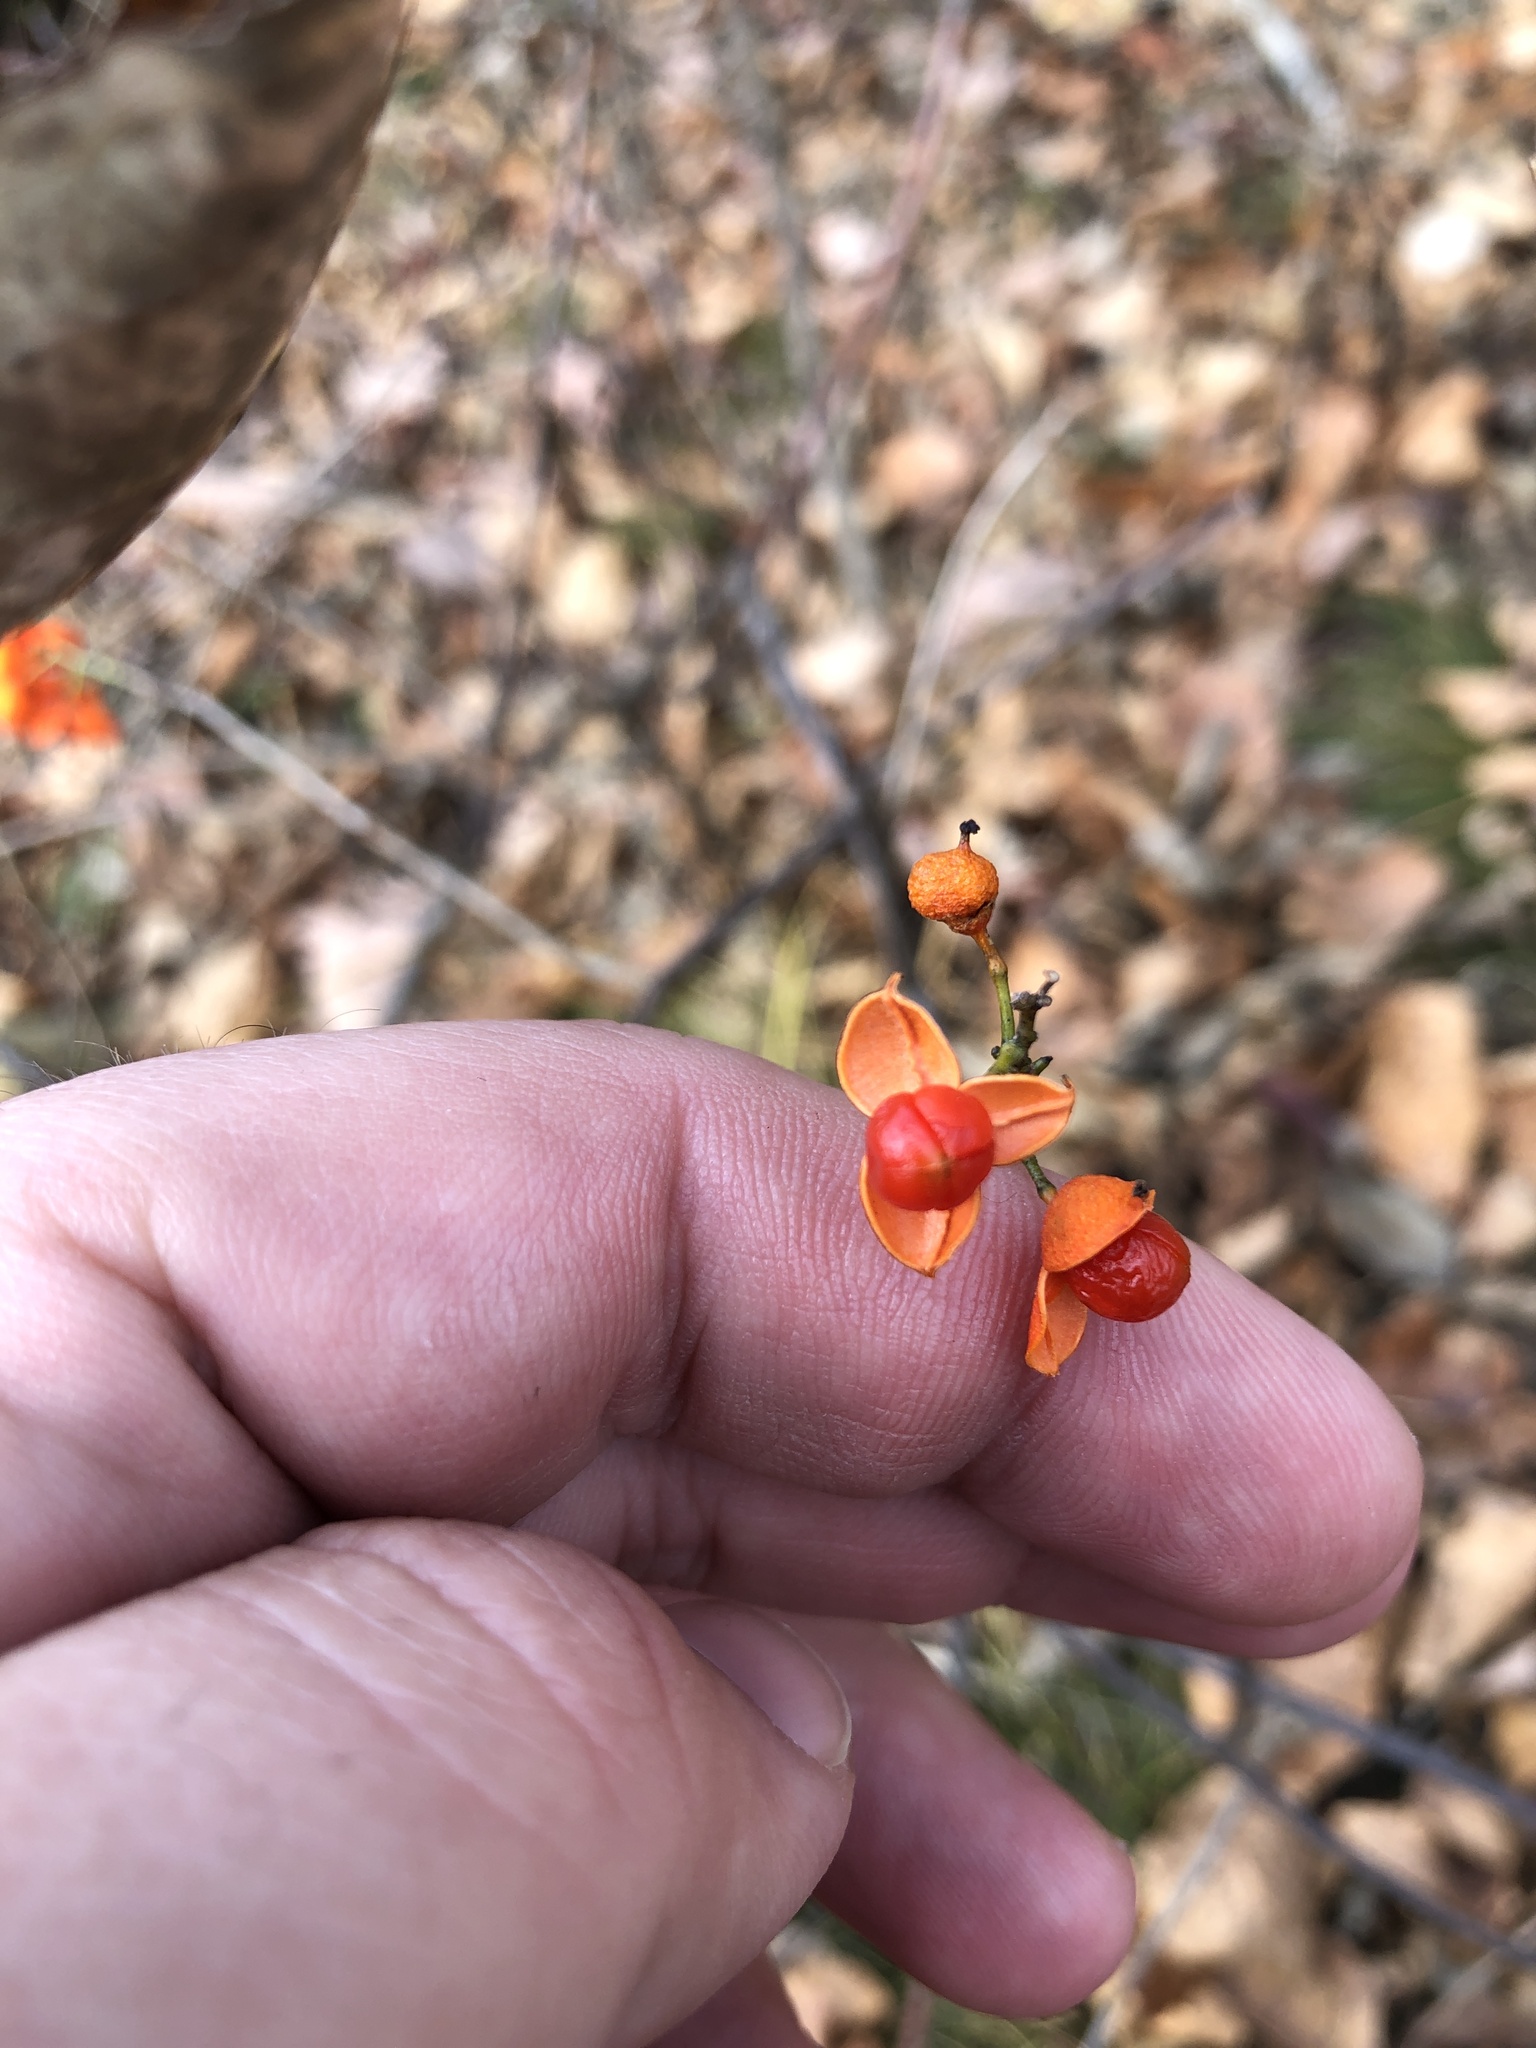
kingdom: Plantae
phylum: Tracheophyta
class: Magnoliopsida
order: Celastrales
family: Celastraceae
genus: Celastrus
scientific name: Celastrus scandens
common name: American bittersweet
